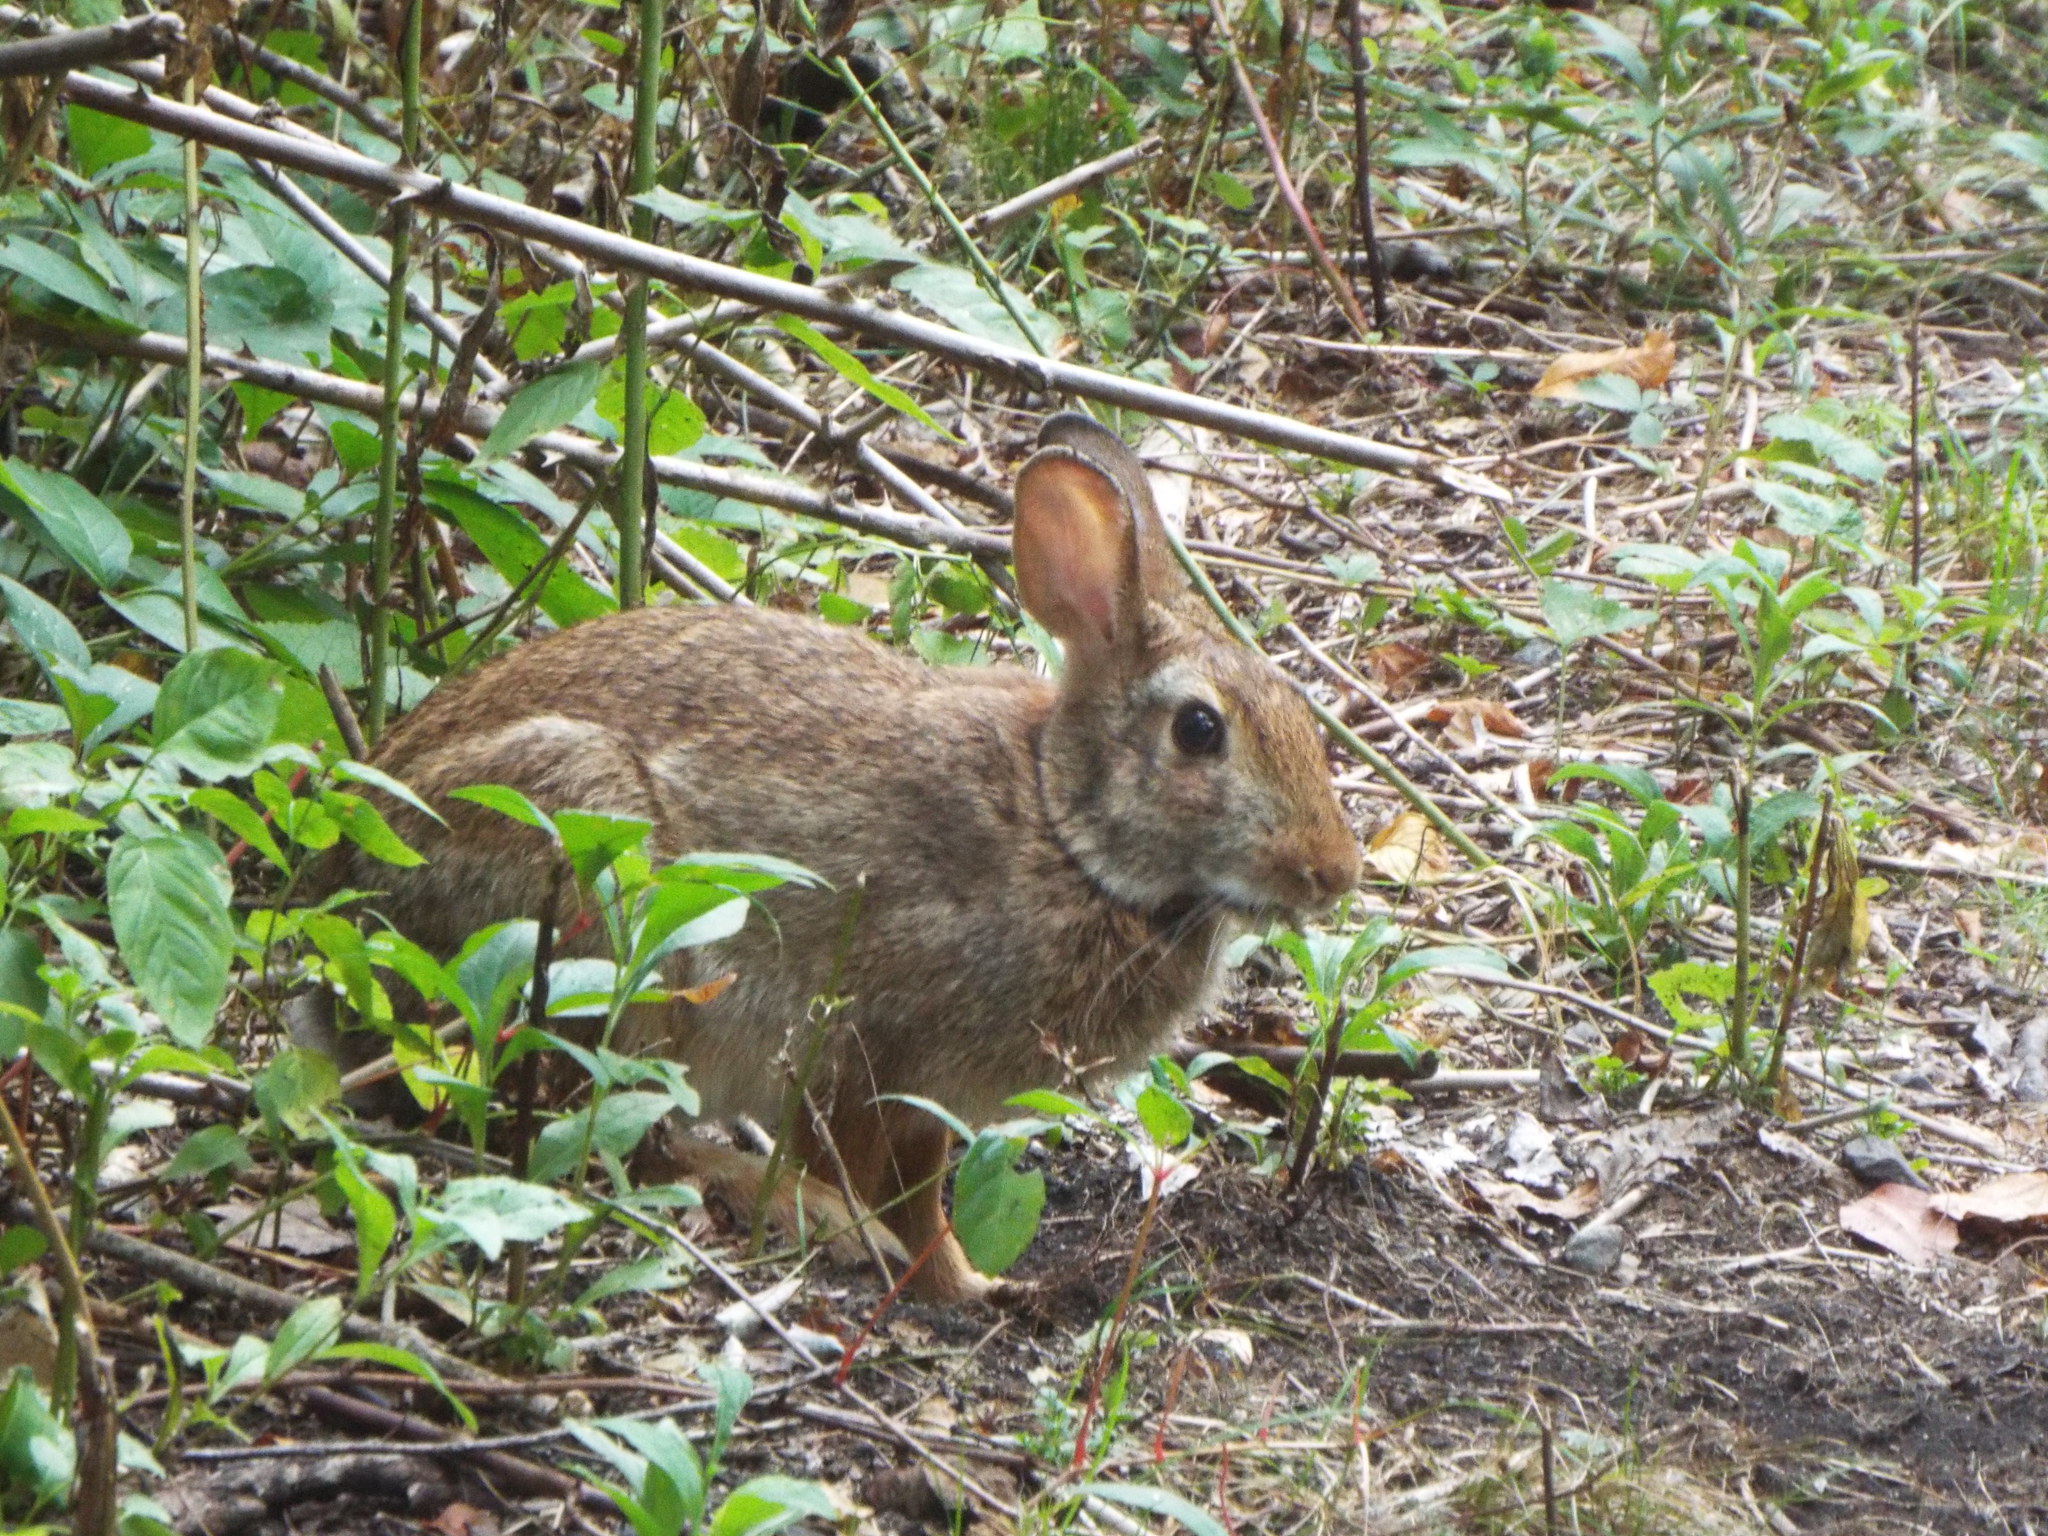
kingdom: Animalia
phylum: Chordata
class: Mammalia
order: Lagomorpha
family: Leporidae
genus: Sylvilagus
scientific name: Sylvilagus floridanus
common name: Eastern cottontail
